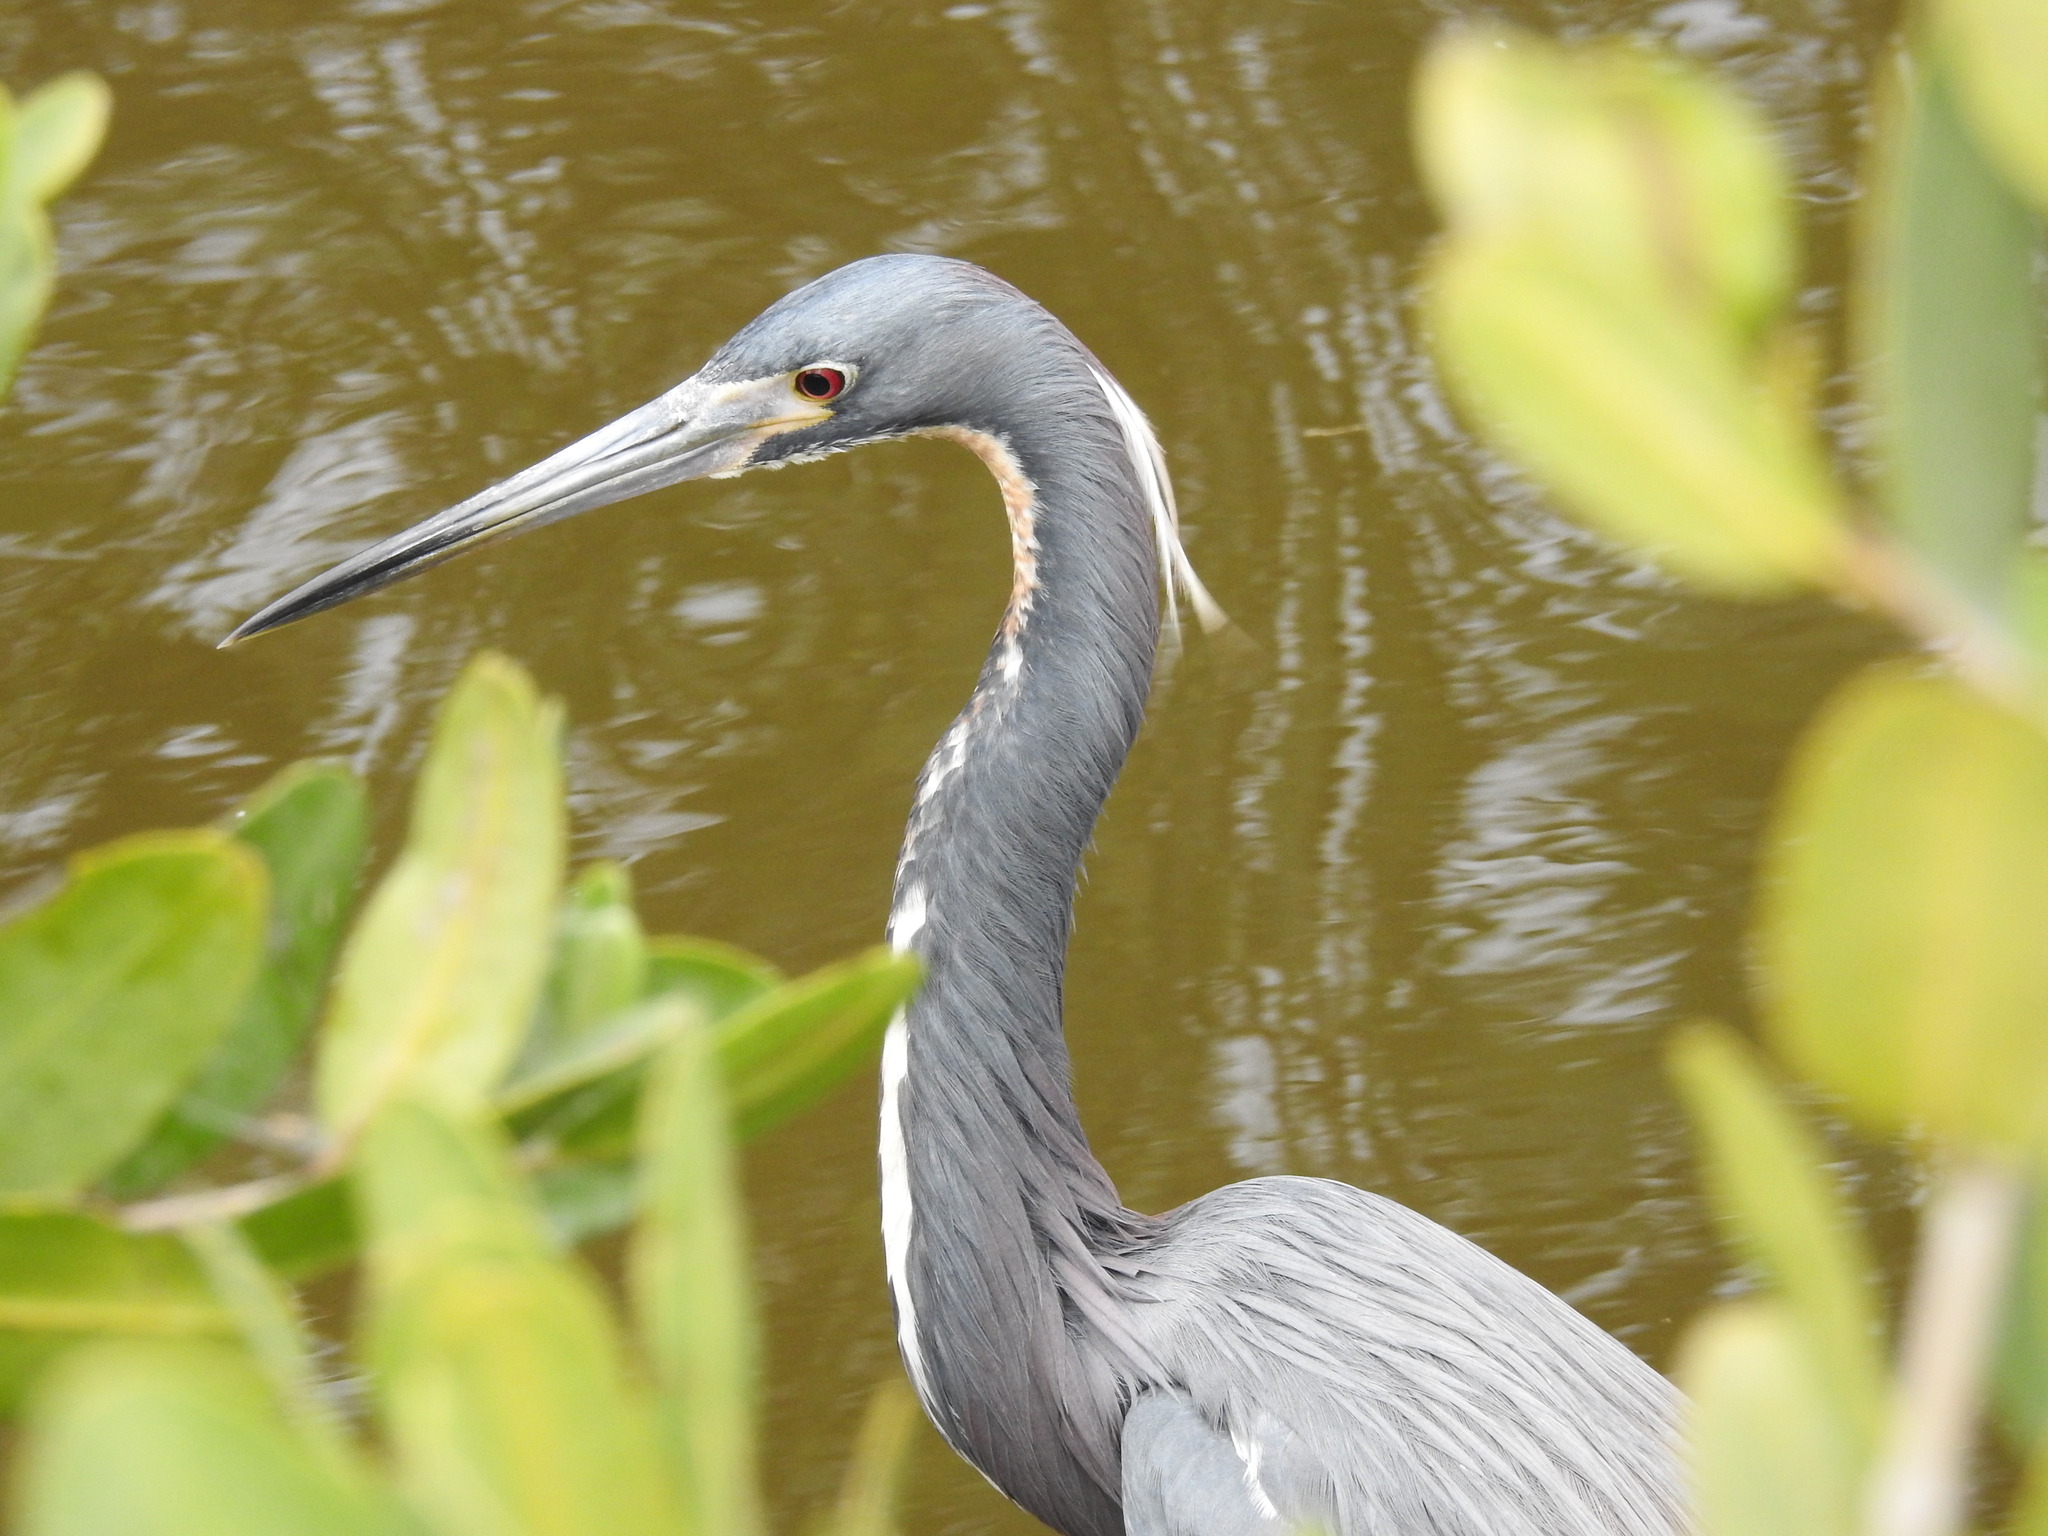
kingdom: Animalia
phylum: Chordata
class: Aves
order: Pelecaniformes
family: Ardeidae
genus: Egretta
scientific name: Egretta tricolor
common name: Tricolored heron
